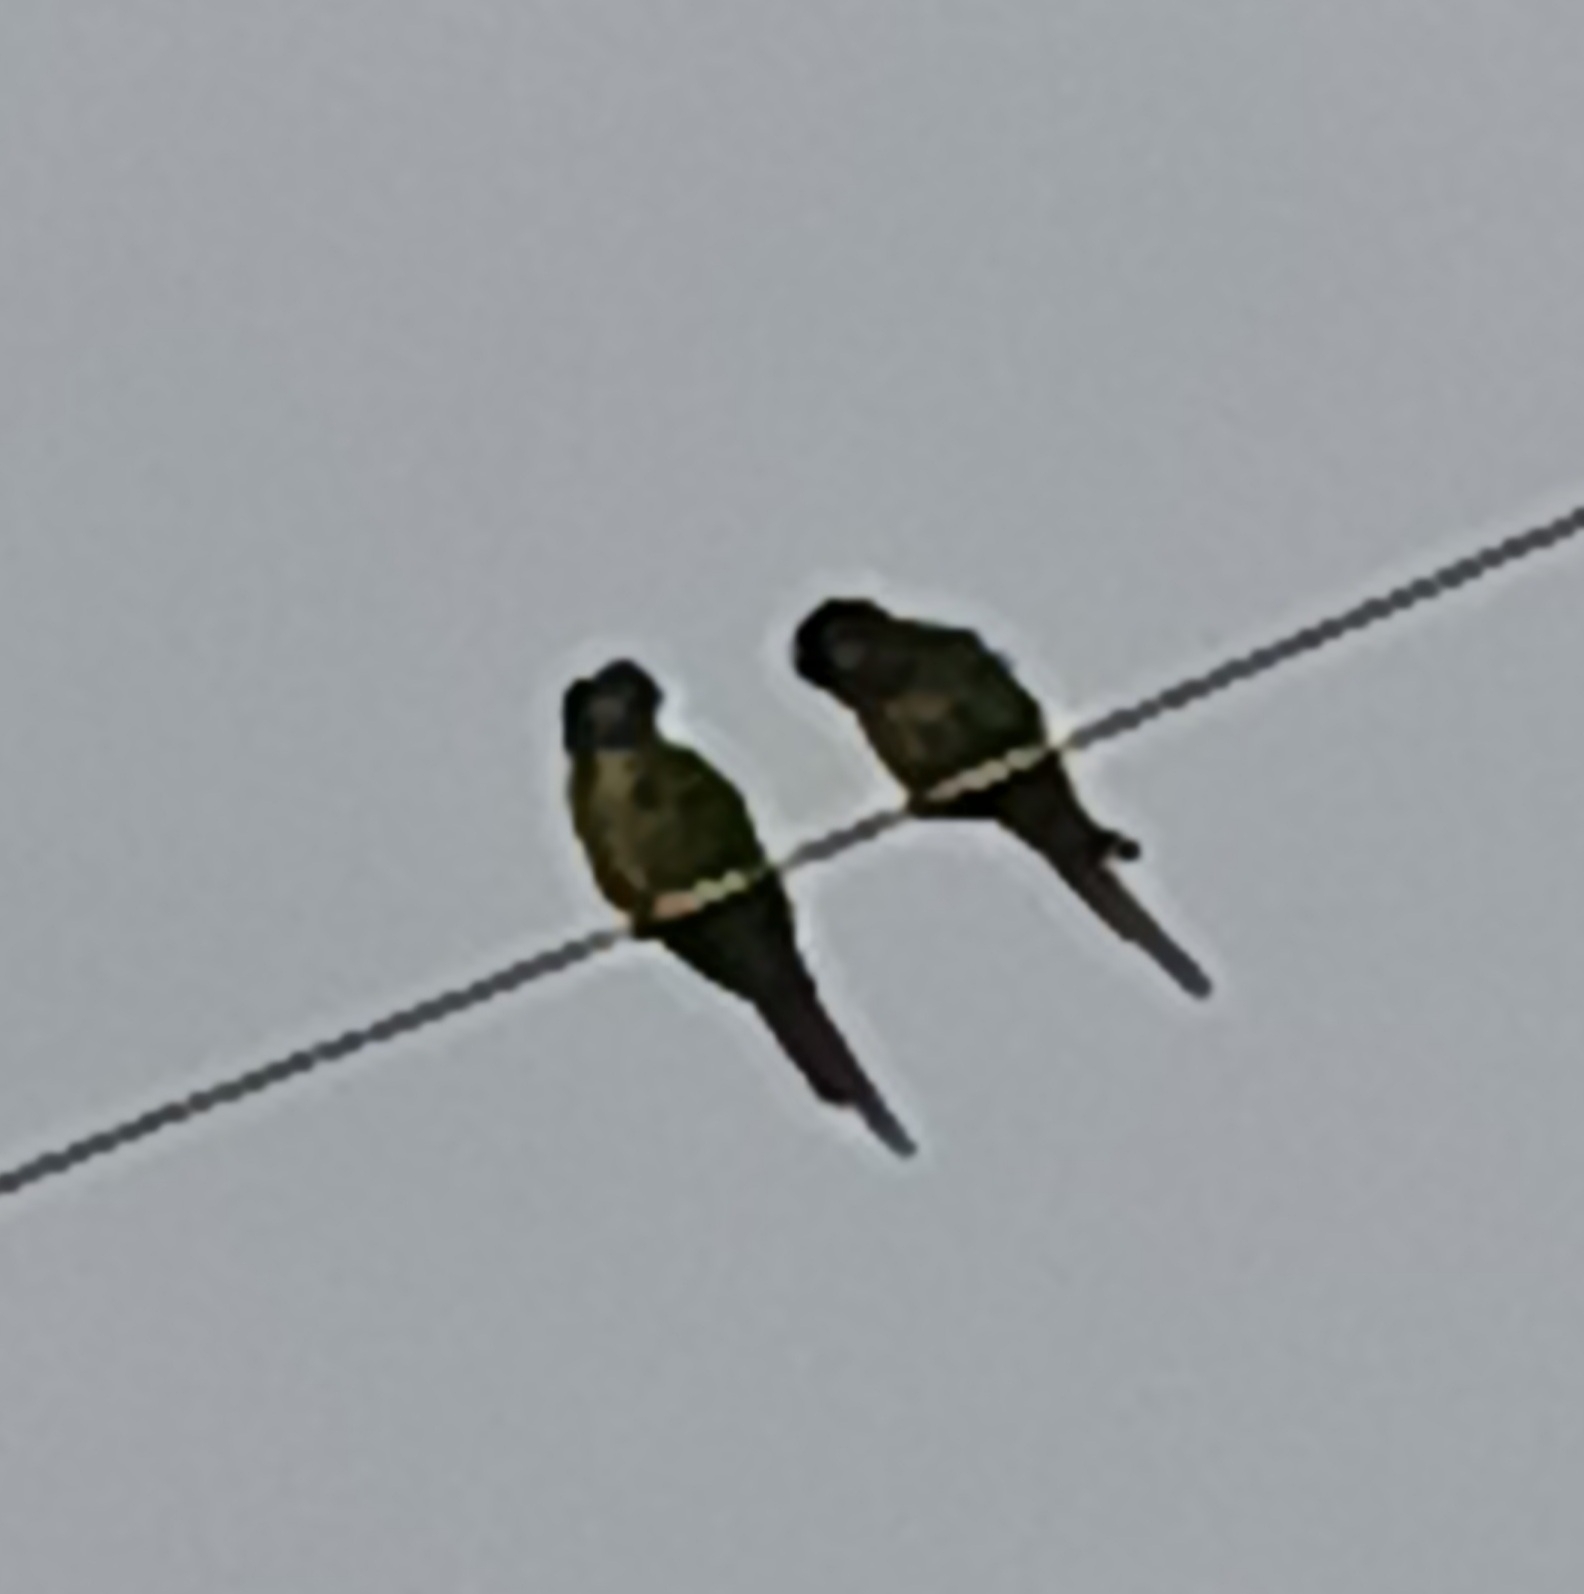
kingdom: Animalia
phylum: Chordata
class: Aves
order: Psittaciformes
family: Psittacidae
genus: Myiopsitta
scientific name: Myiopsitta monachus
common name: Monk parakeet
